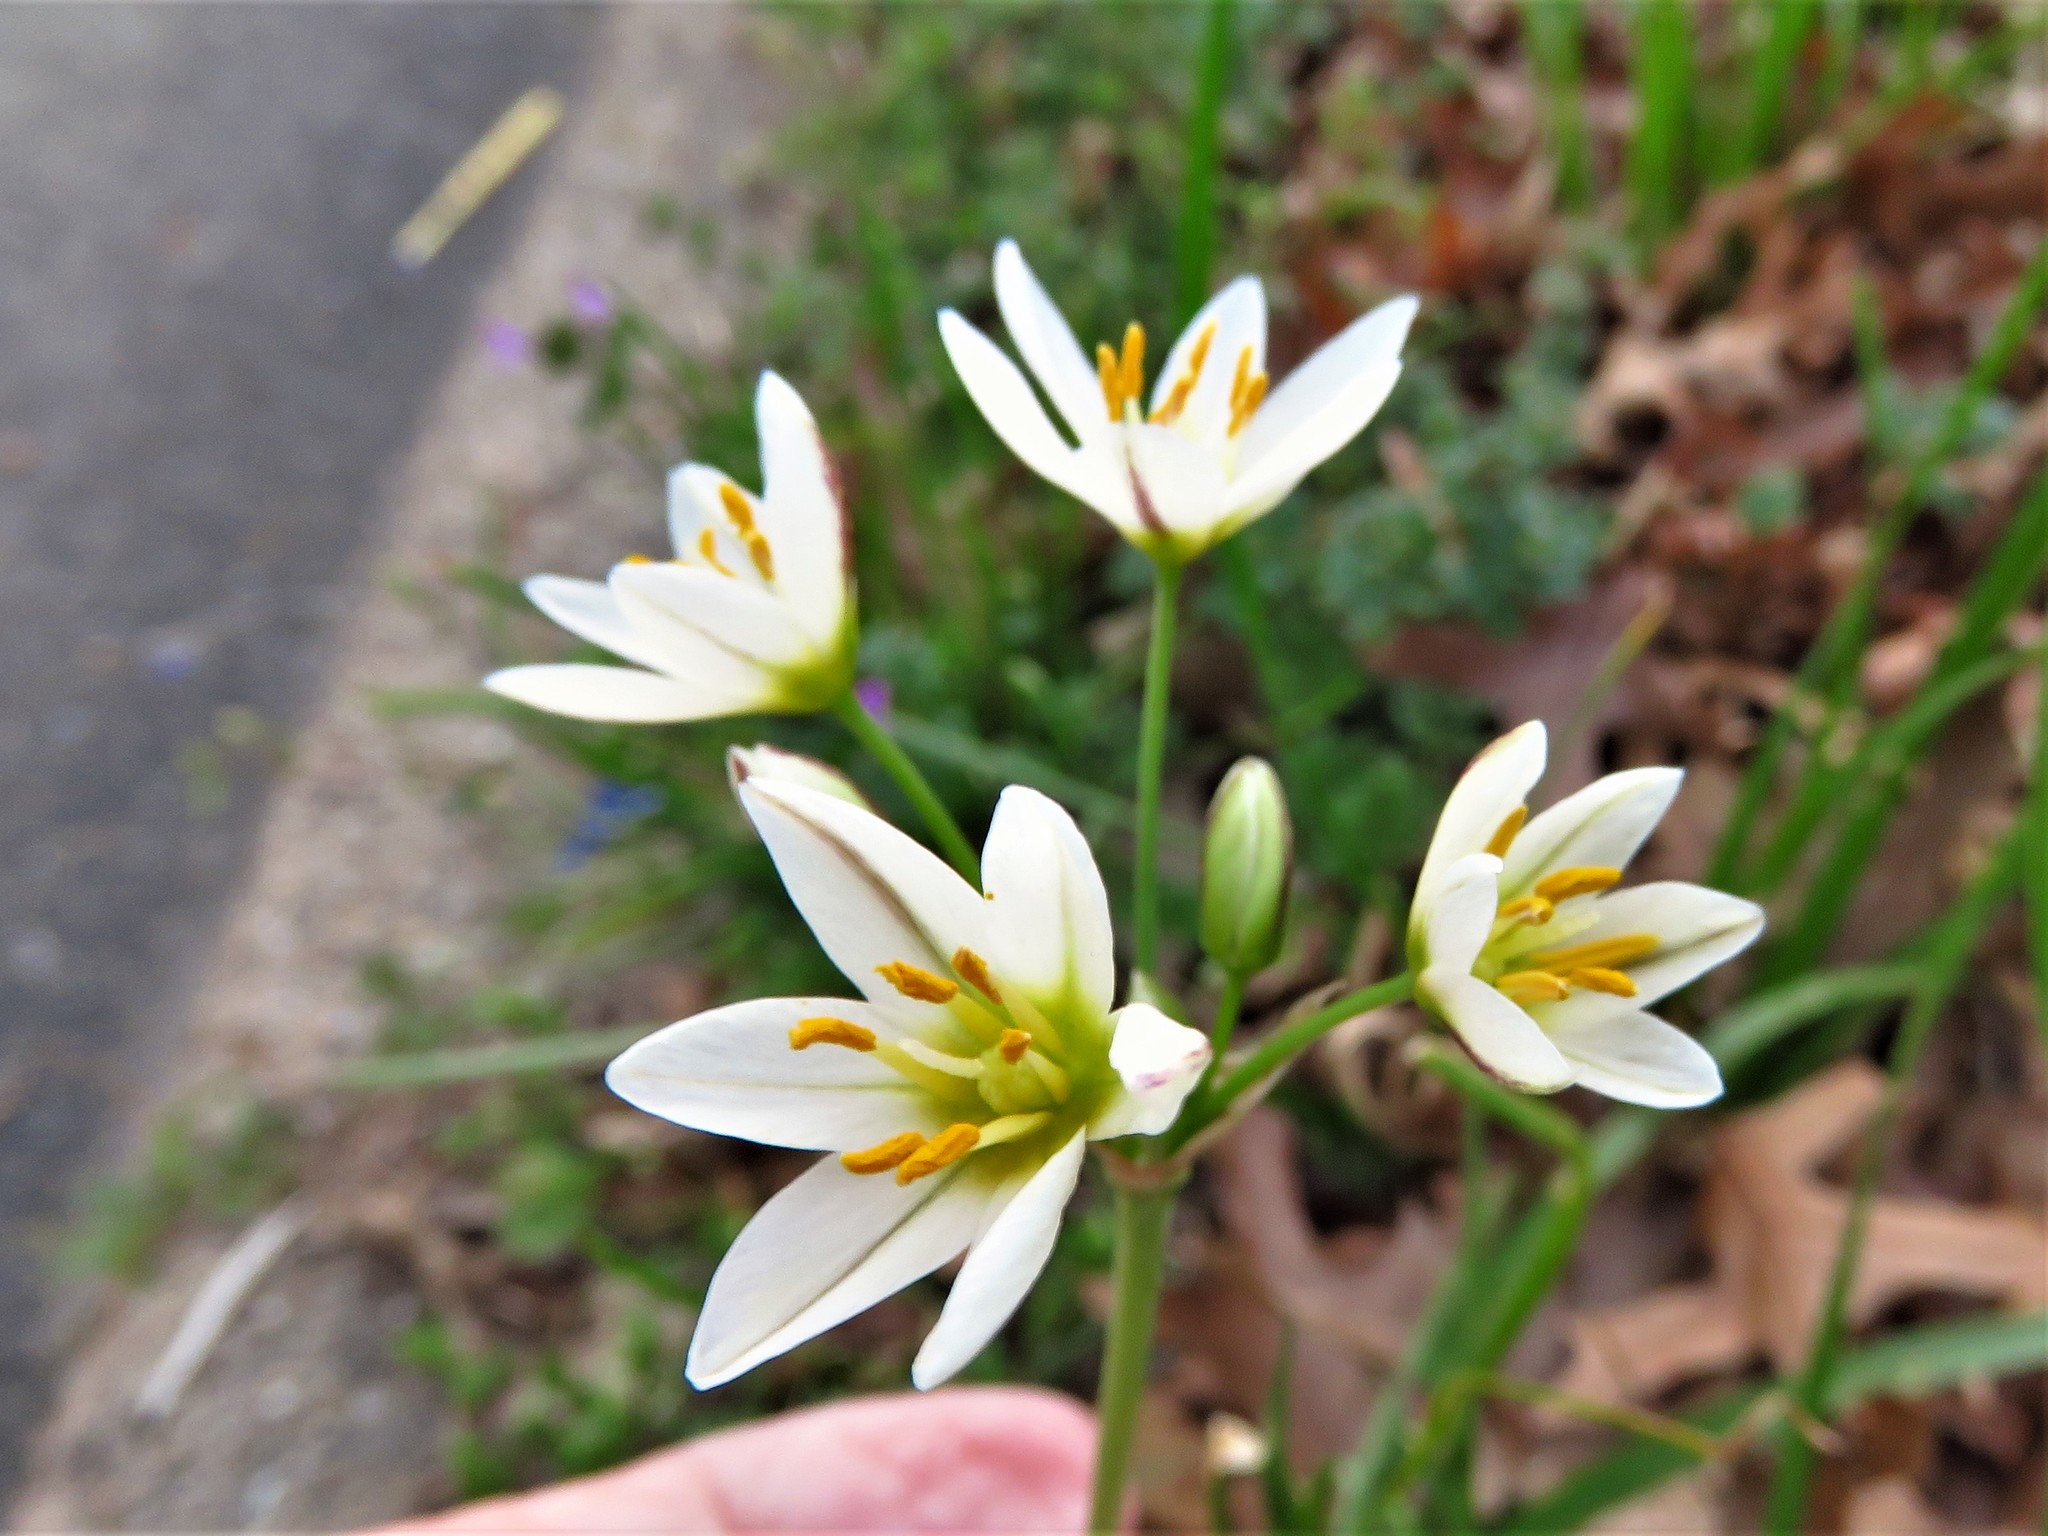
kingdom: Plantae
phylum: Tracheophyta
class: Liliopsida
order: Asparagales
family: Amaryllidaceae
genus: Nothoscordum
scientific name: Nothoscordum bivalve
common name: Crow-poison
